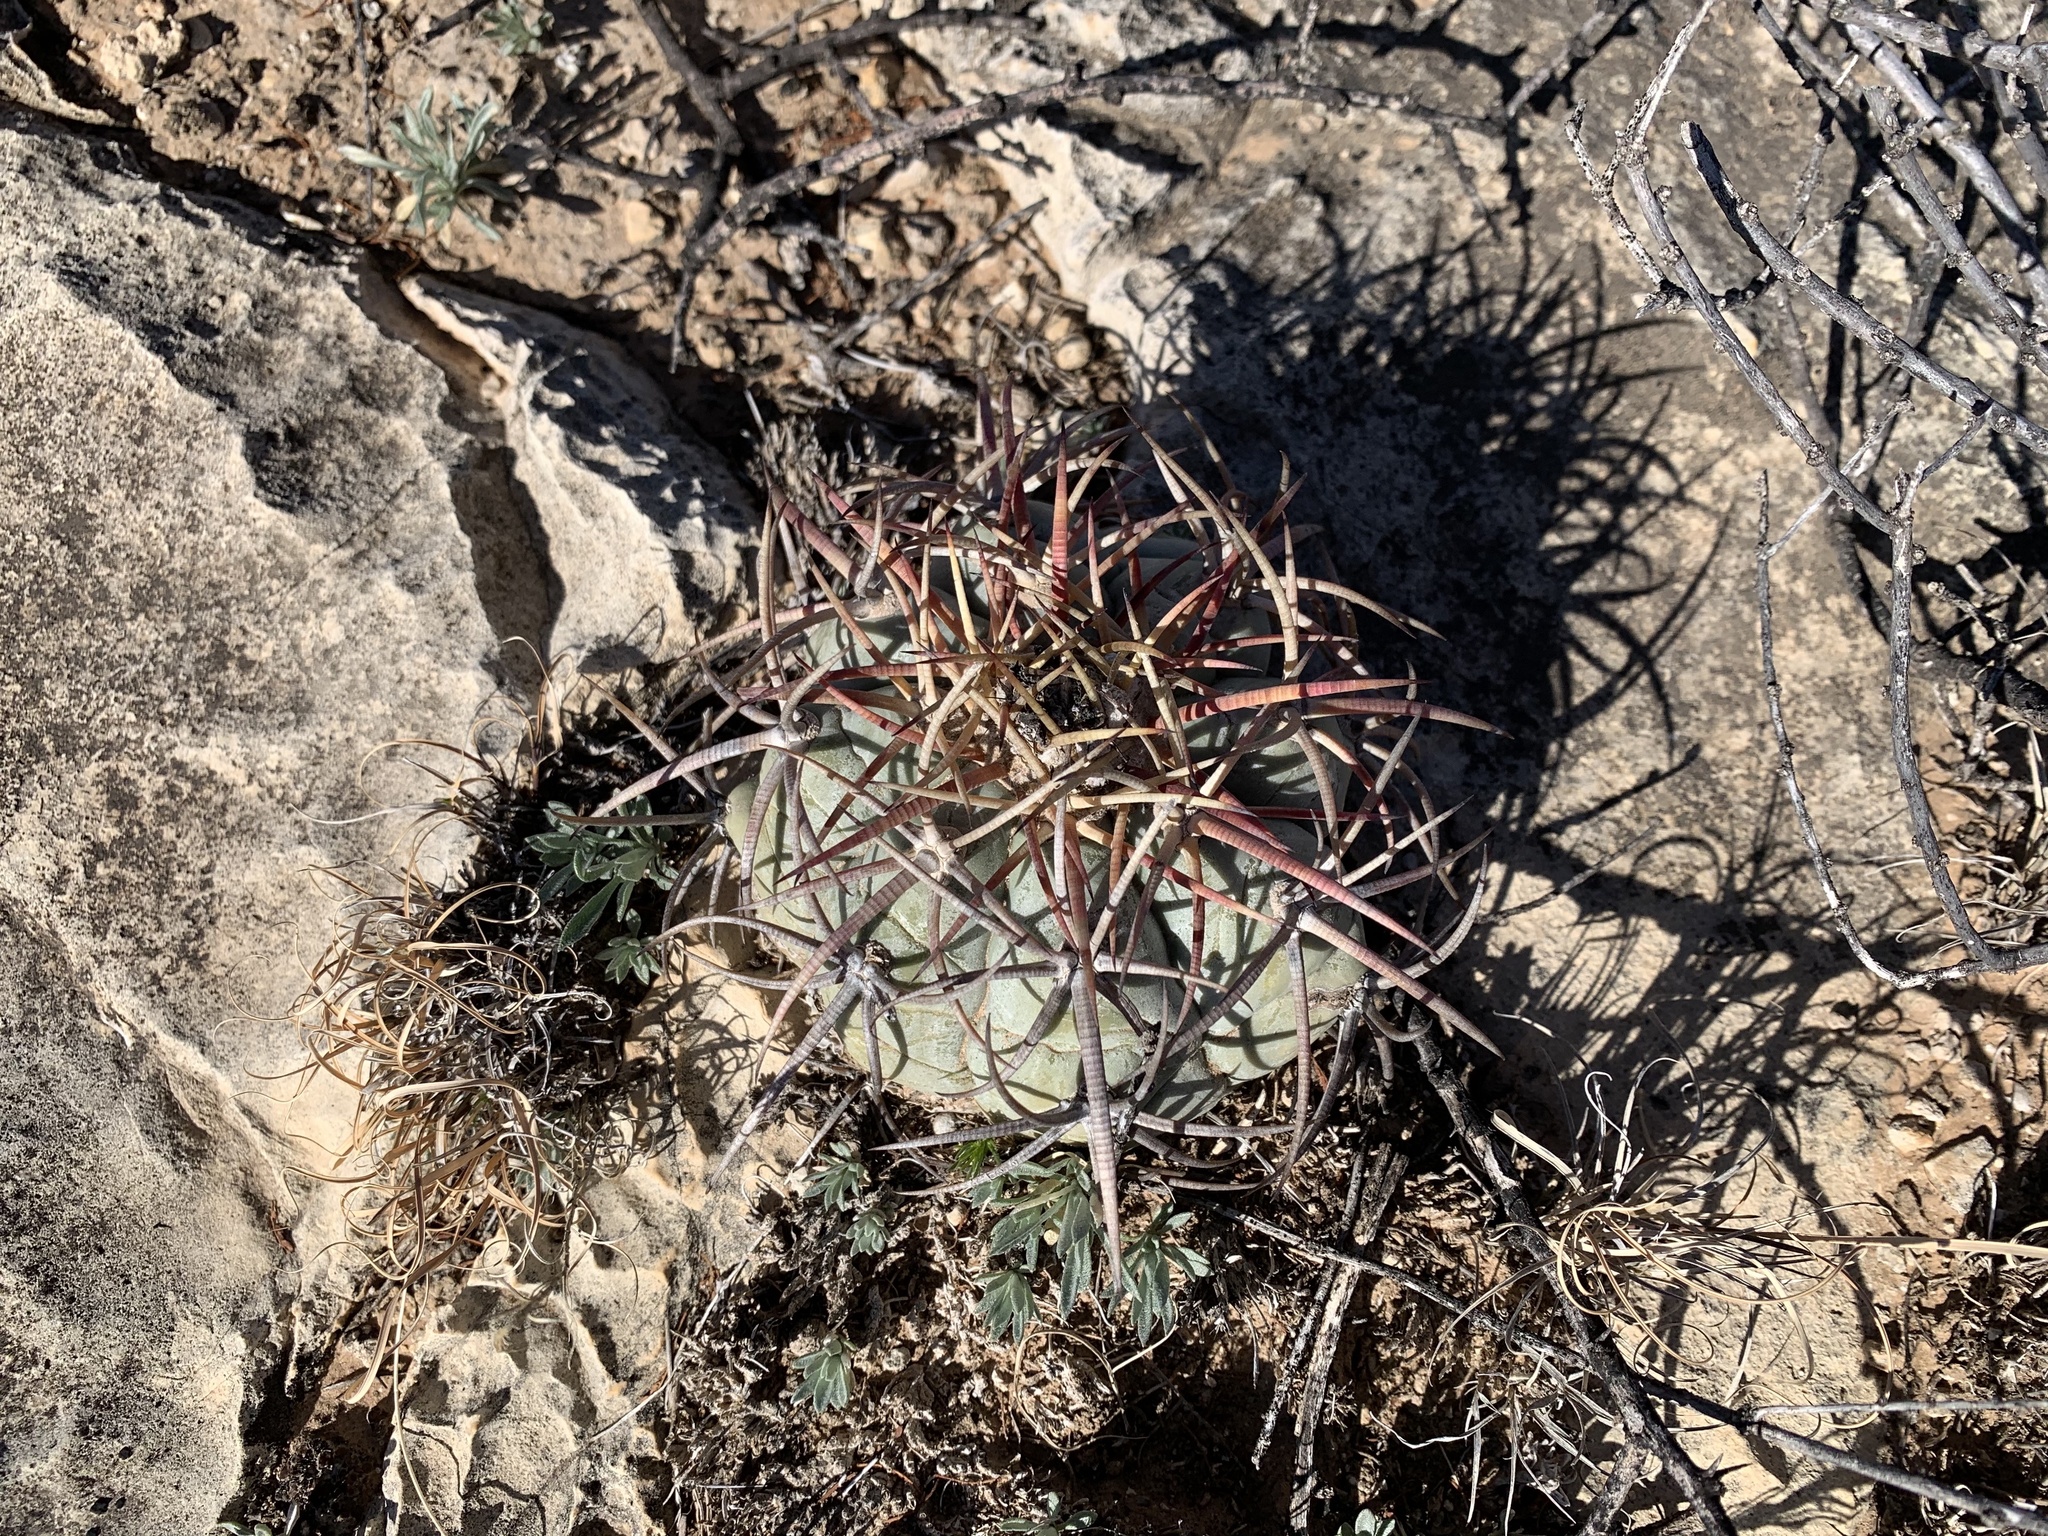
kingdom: Plantae
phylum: Tracheophyta
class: Magnoliopsida
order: Caryophyllales
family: Cactaceae
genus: Echinocactus
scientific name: Echinocactus horizonthalonius
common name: Devilshead
